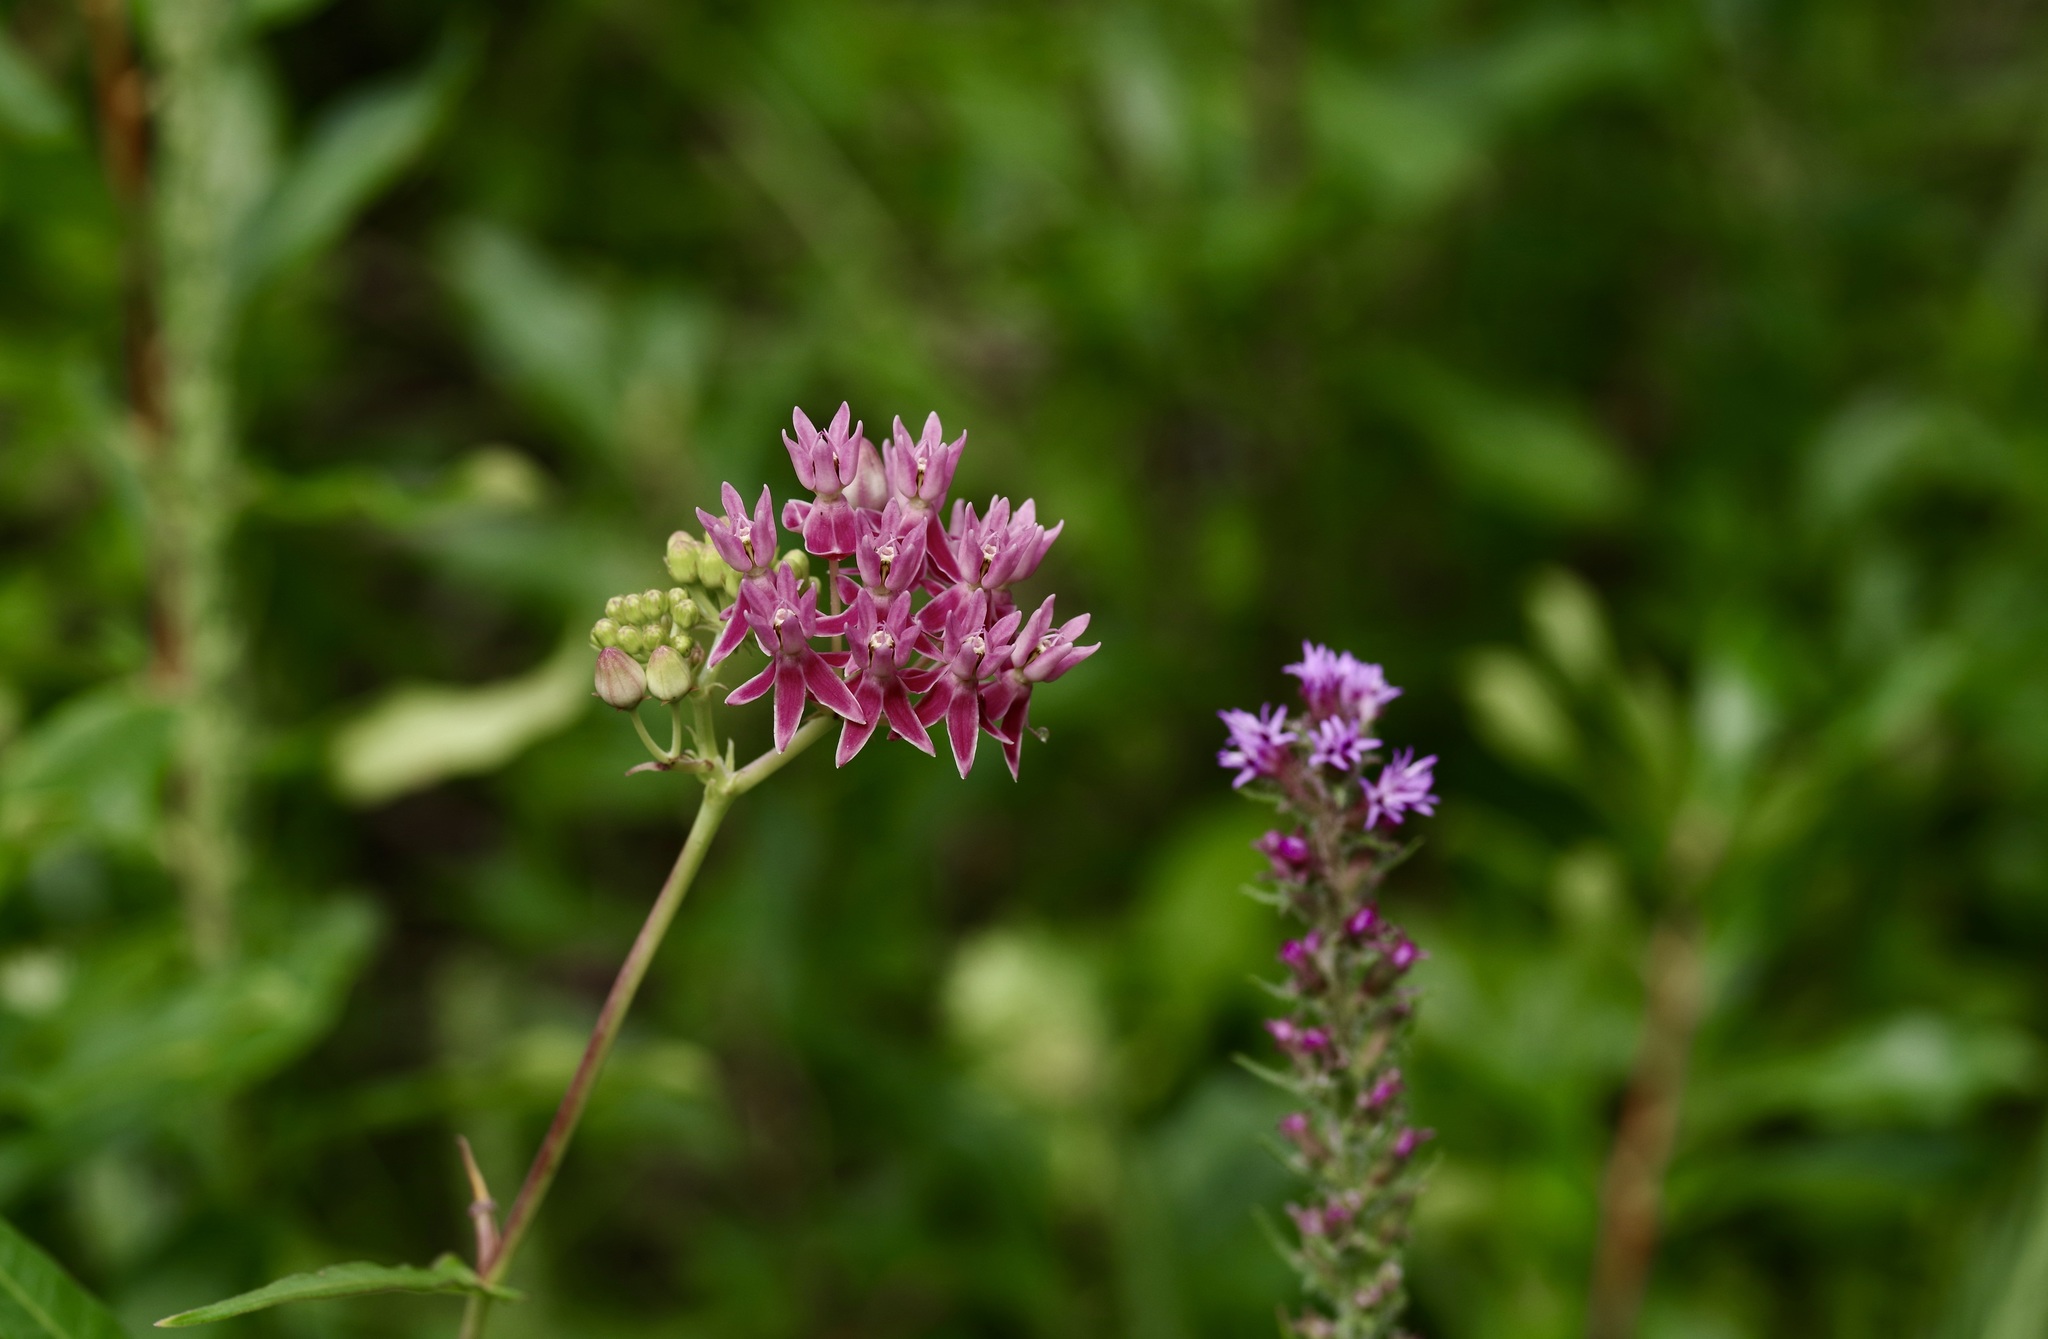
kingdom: Plantae
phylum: Tracheophyta
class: Magnoliopsida
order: Gentianales
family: Apocynaceae
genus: Asclepias
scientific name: Asclepias rubra
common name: Red milkweed
